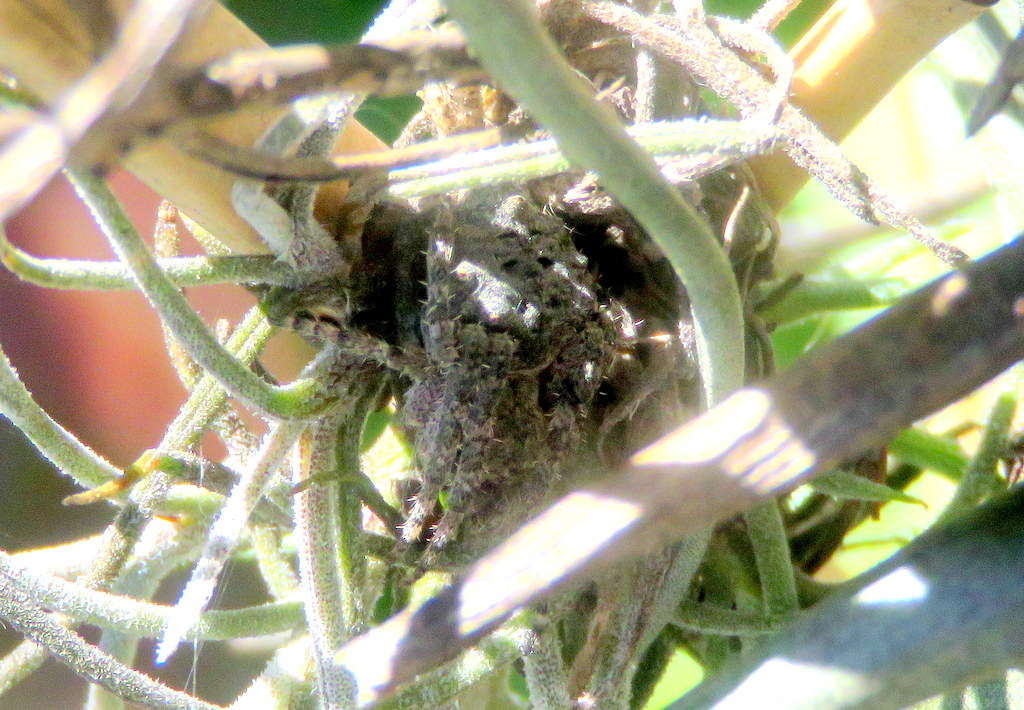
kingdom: Animalia
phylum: Arthropoda
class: Arachnida
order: Araneae
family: Araneidae
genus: Parawixia
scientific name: Parawixia audax
